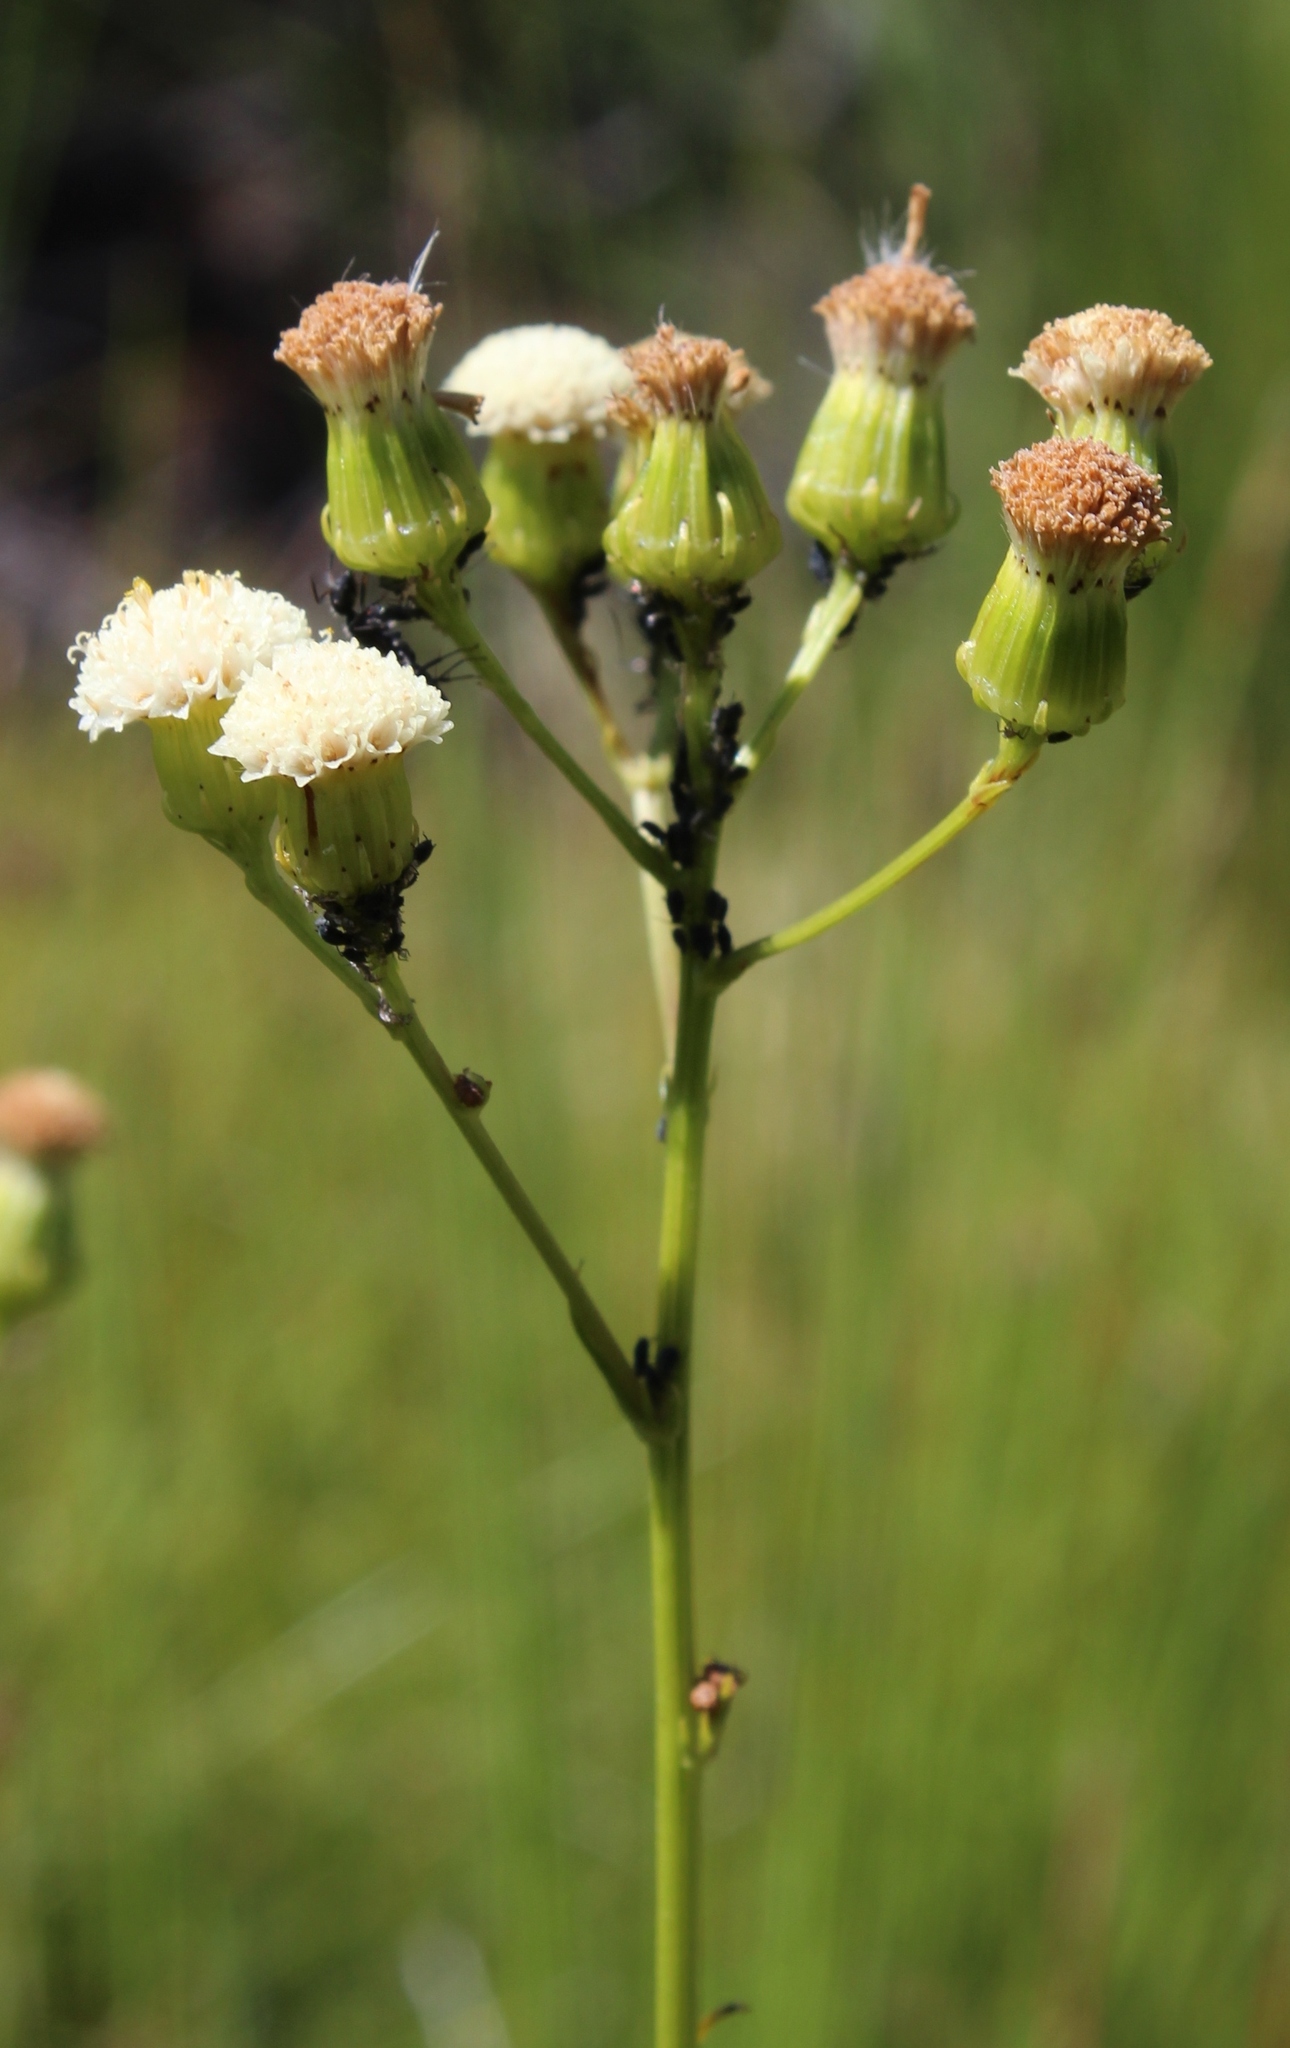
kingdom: Plantae
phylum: Tracheophyta
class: Magnoliopsida
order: Asterales
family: Asteraceae
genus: Senecio
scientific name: Senecio paniculatus
